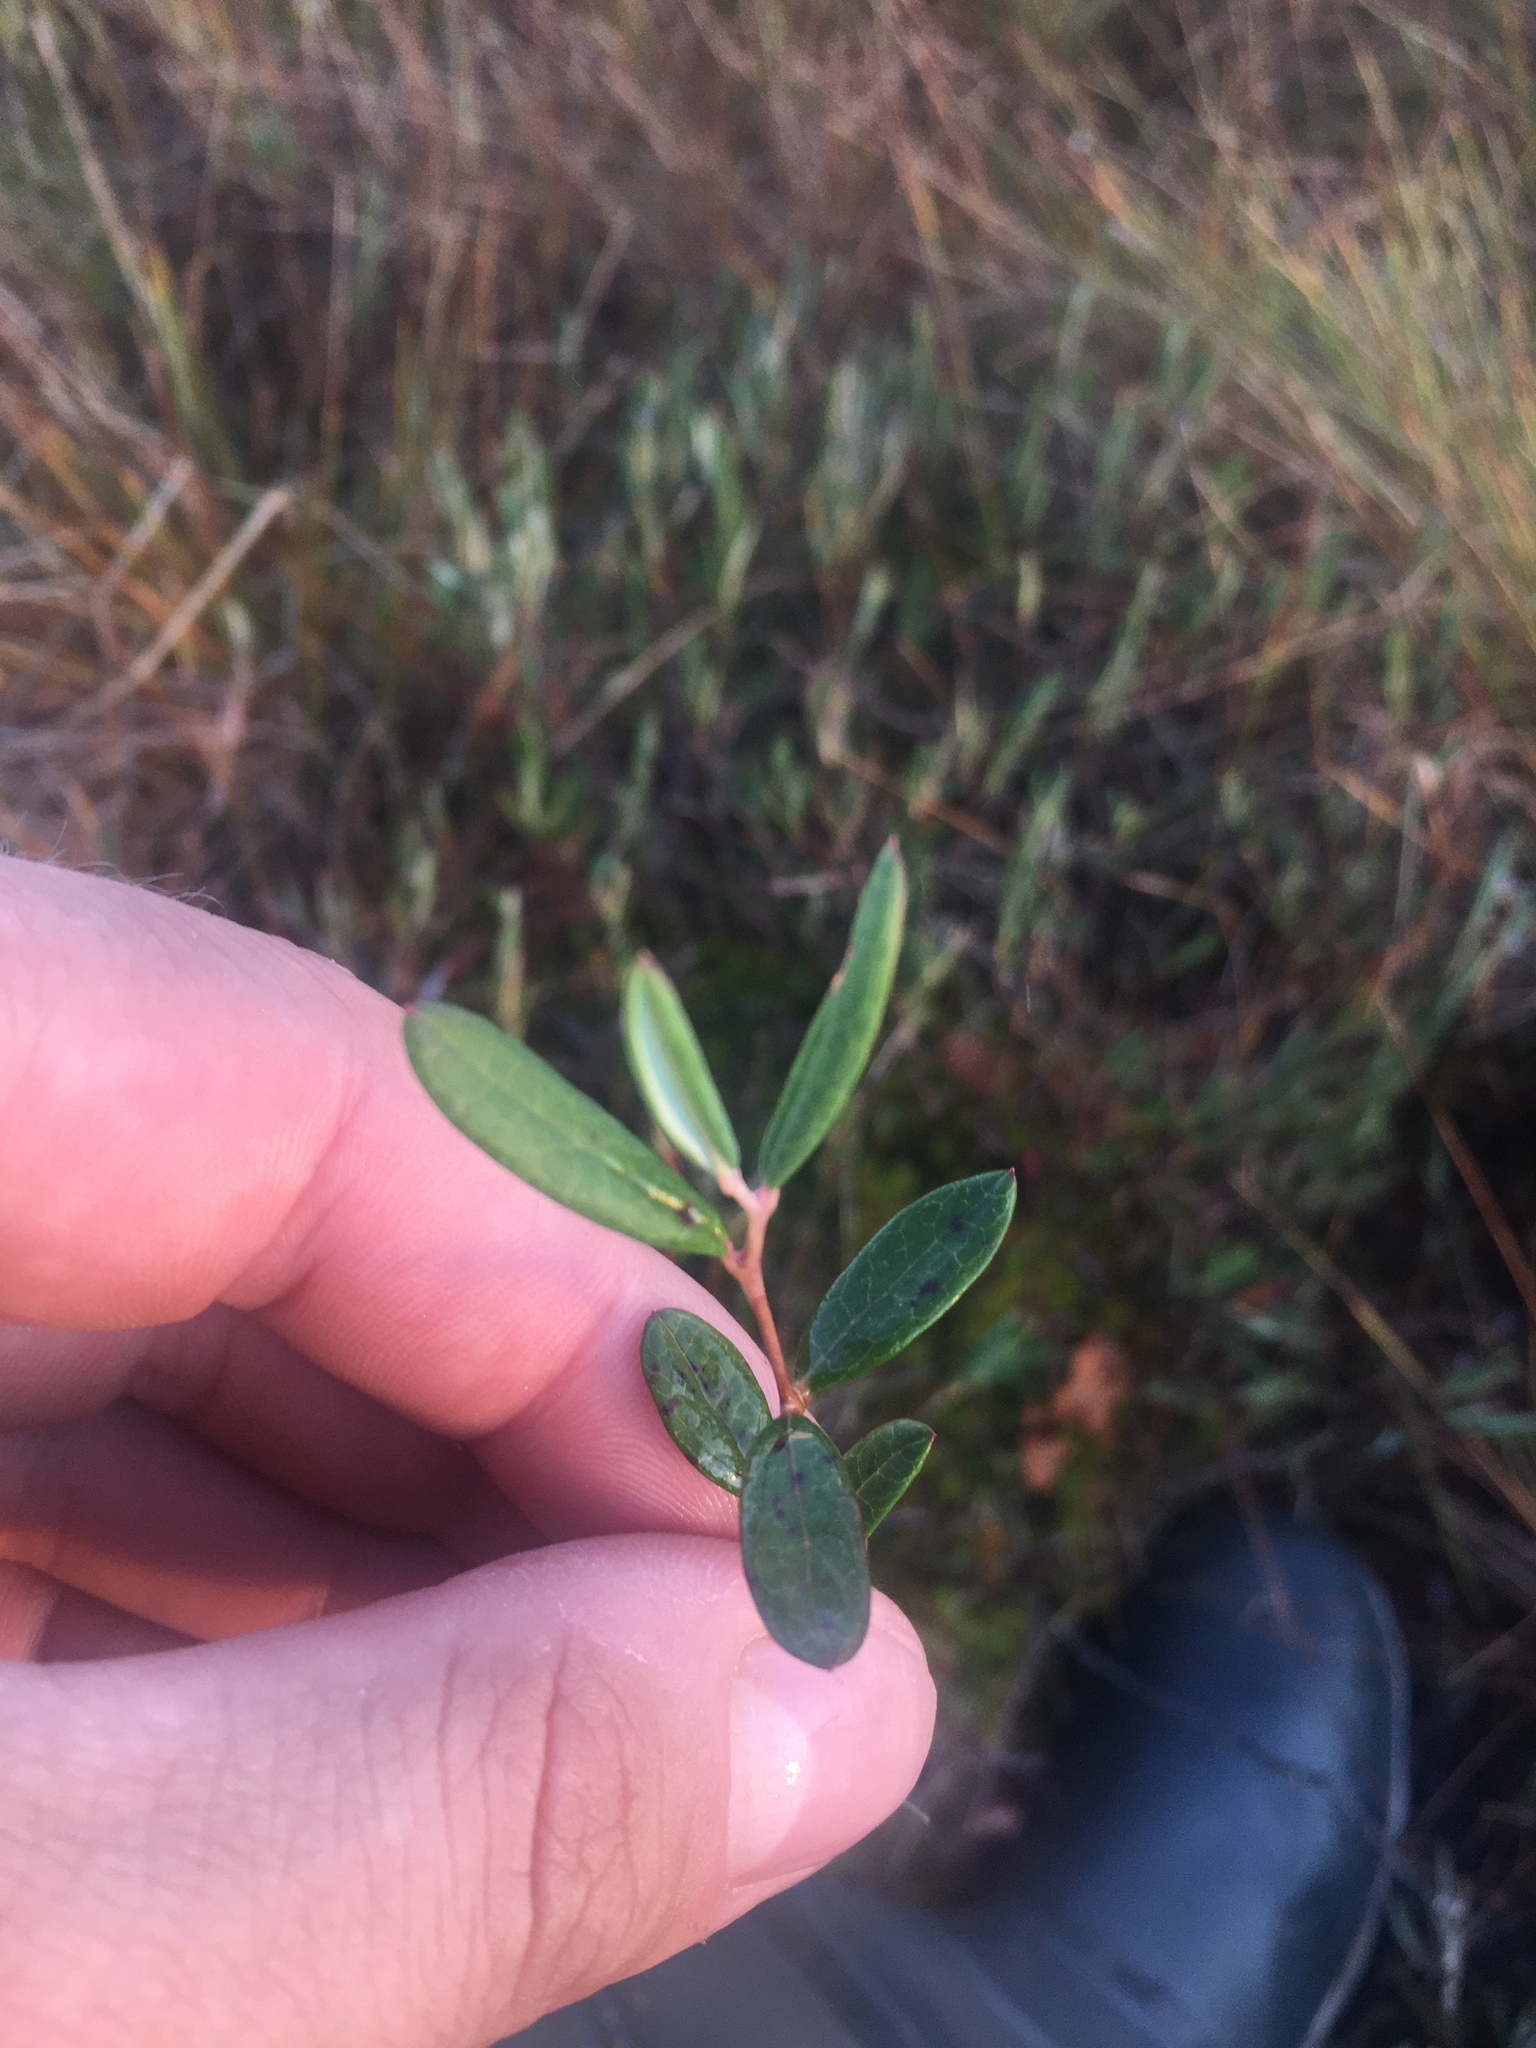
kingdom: Plantae
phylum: Tracheophyta
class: Magnoliopsida
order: Ericales
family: Ericaceae
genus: Andromeda
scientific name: Andromeda polifolia
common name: Bog-rosemary
